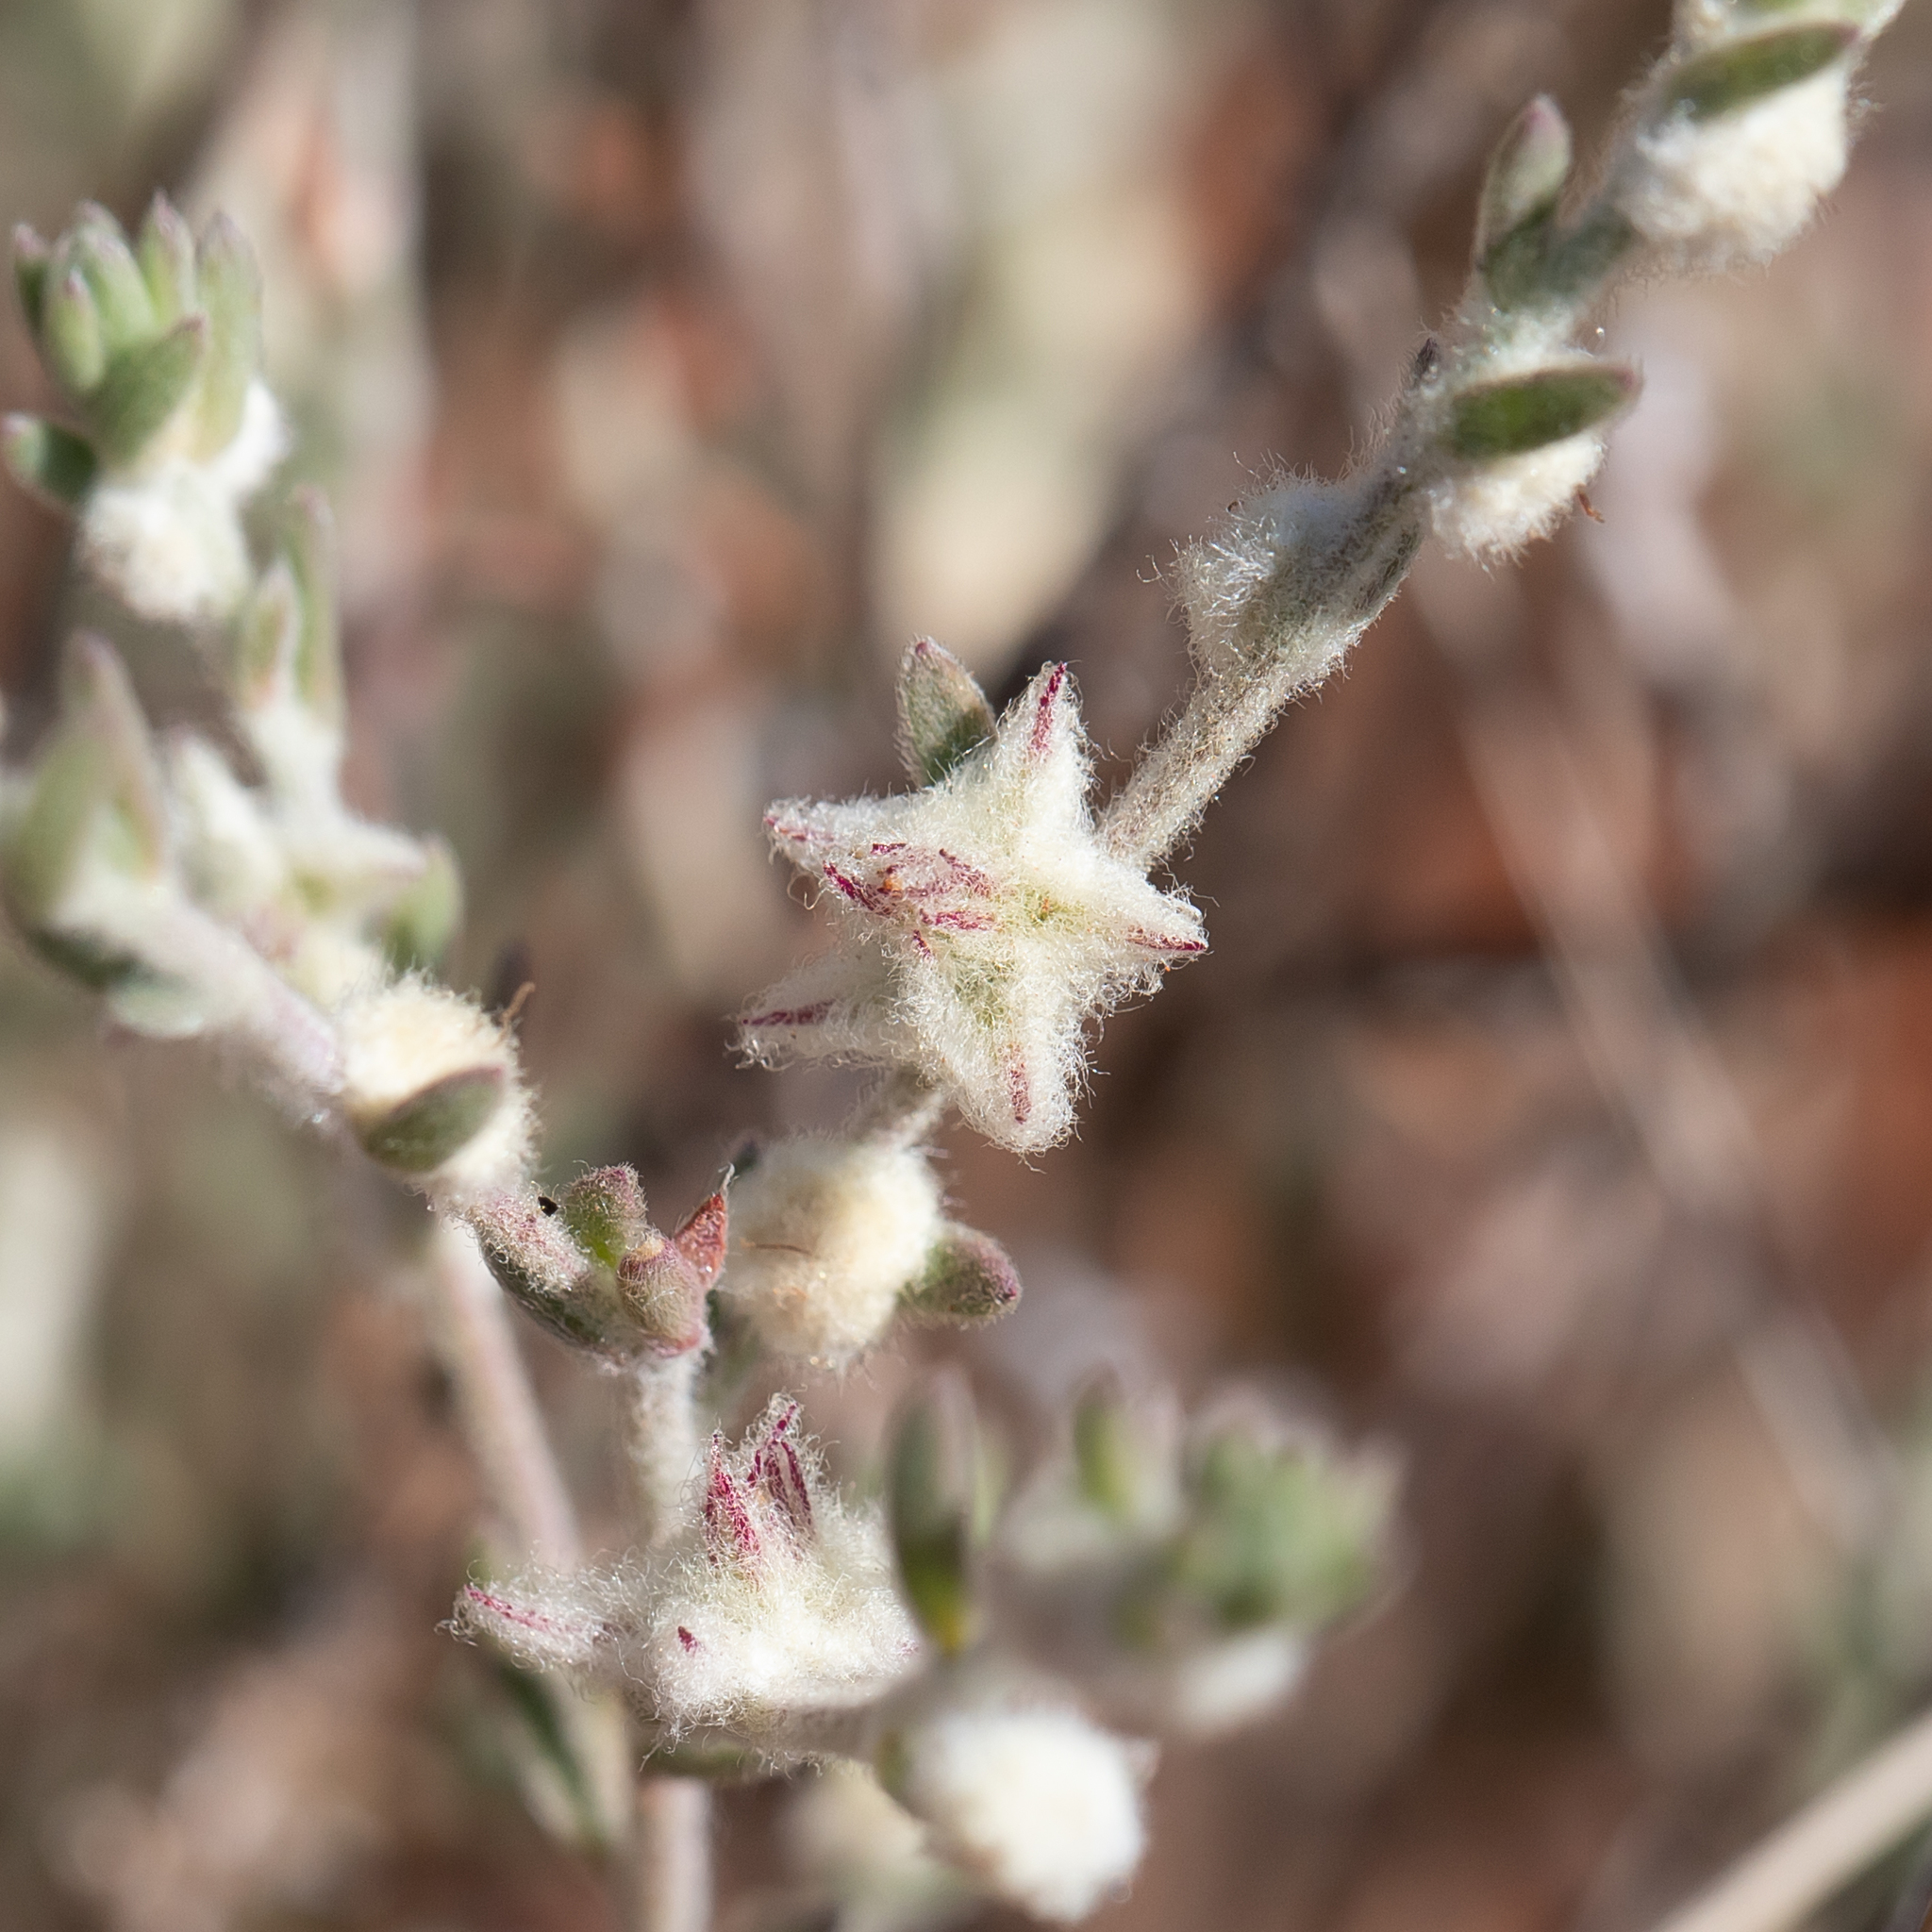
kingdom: Plantae
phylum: Tracheophyta
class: Magnoliopsida
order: Caryophyllales
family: Amaranthaceae
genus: Maireana
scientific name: Maireana sclerolaenoides
